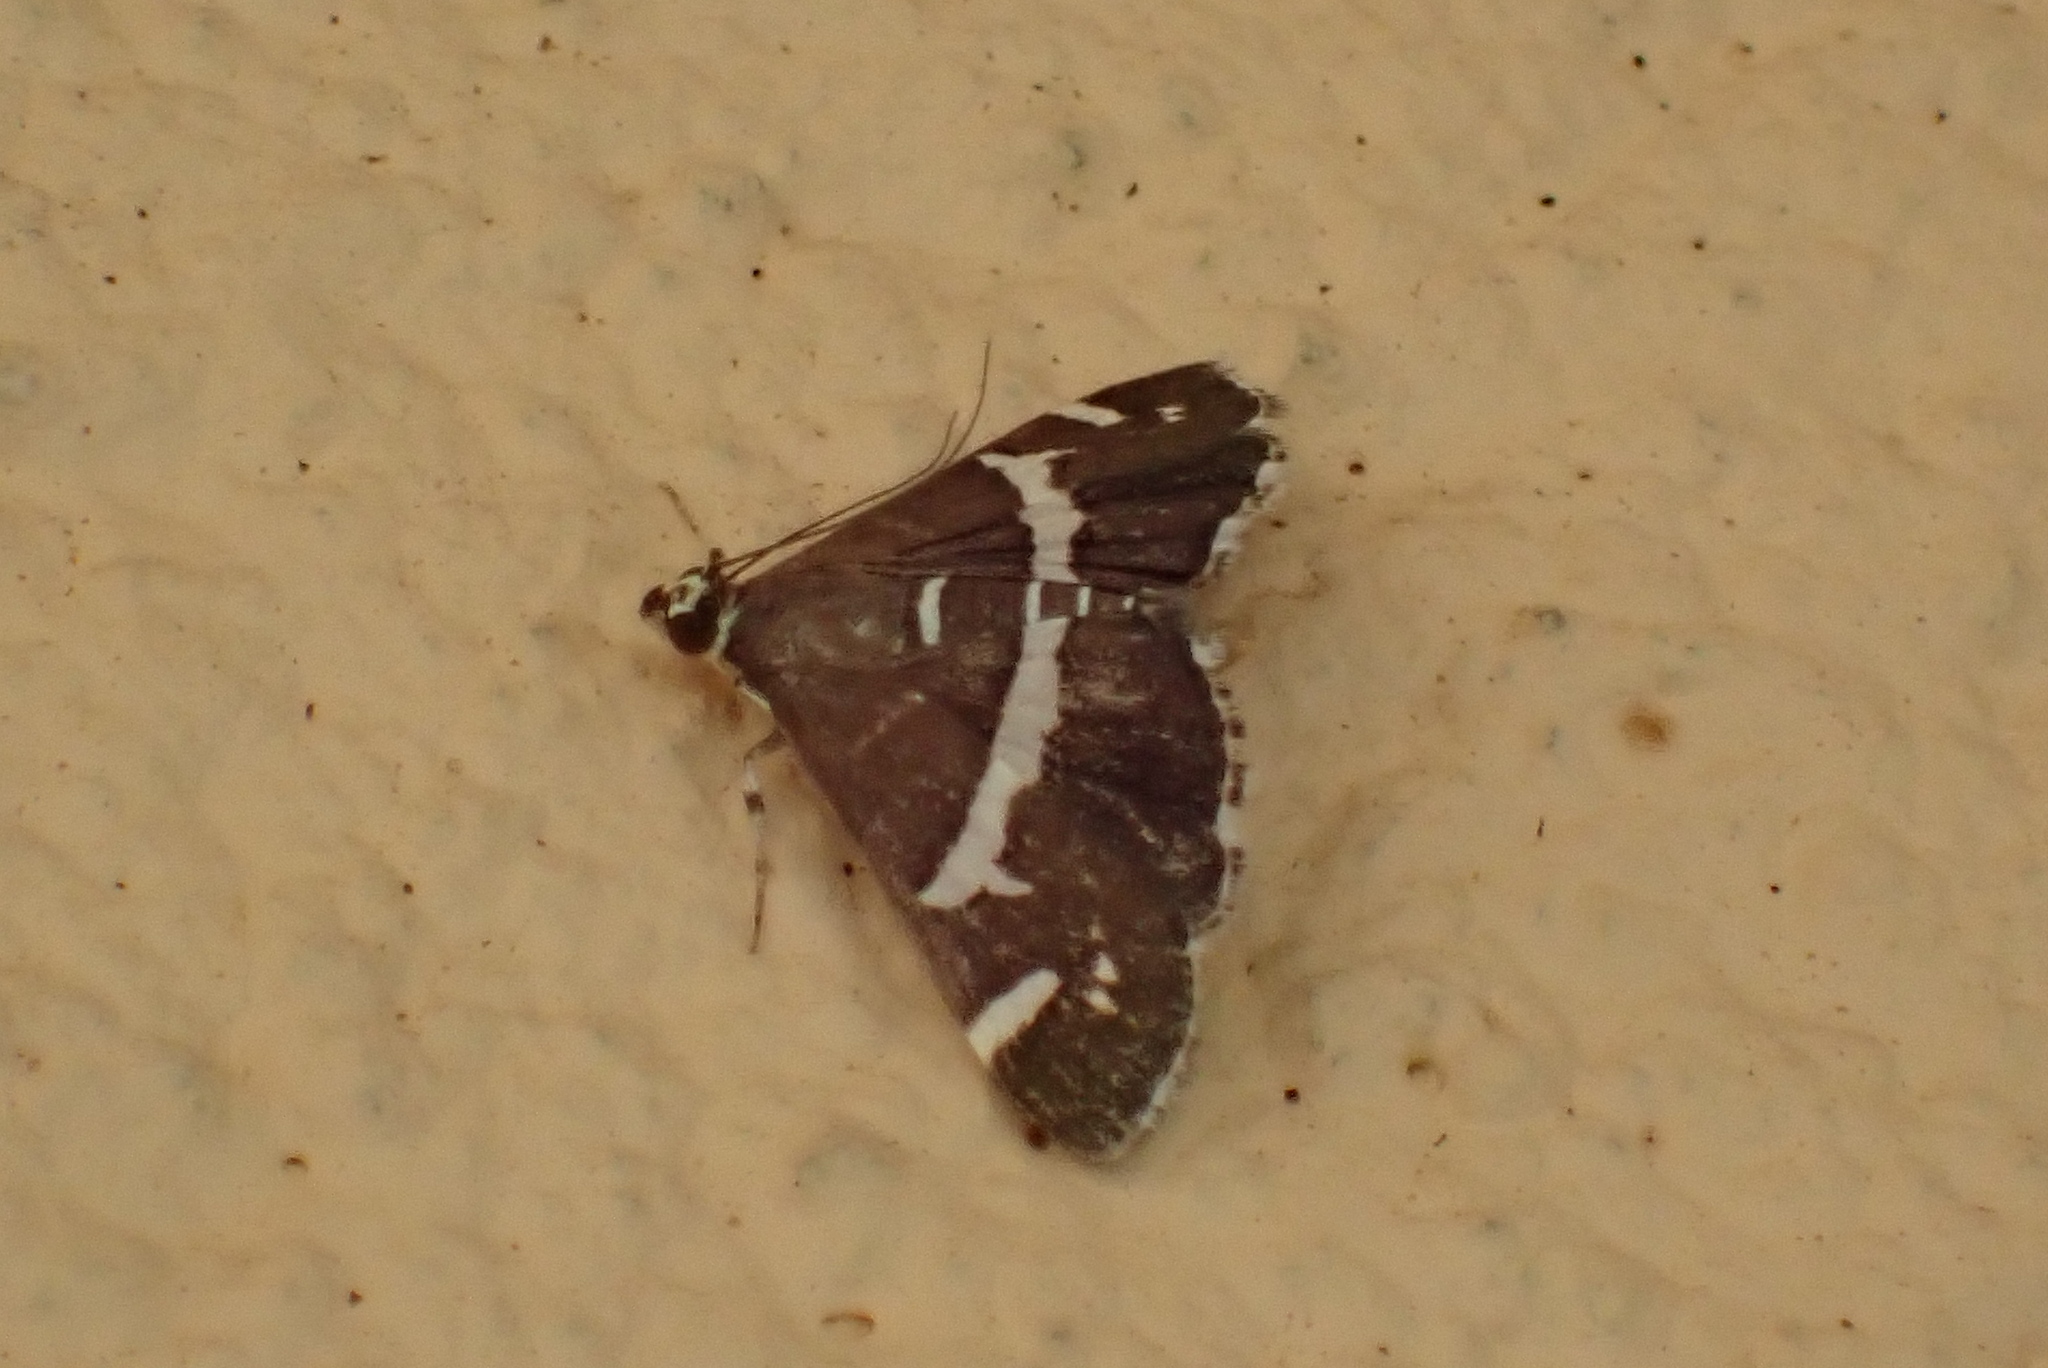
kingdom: Animalia
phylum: Arthropoda
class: Insecta
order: Lepidoptera
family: Crambidae
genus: Spoladea
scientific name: Spoladea recurvalis
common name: Beet webworm moth
